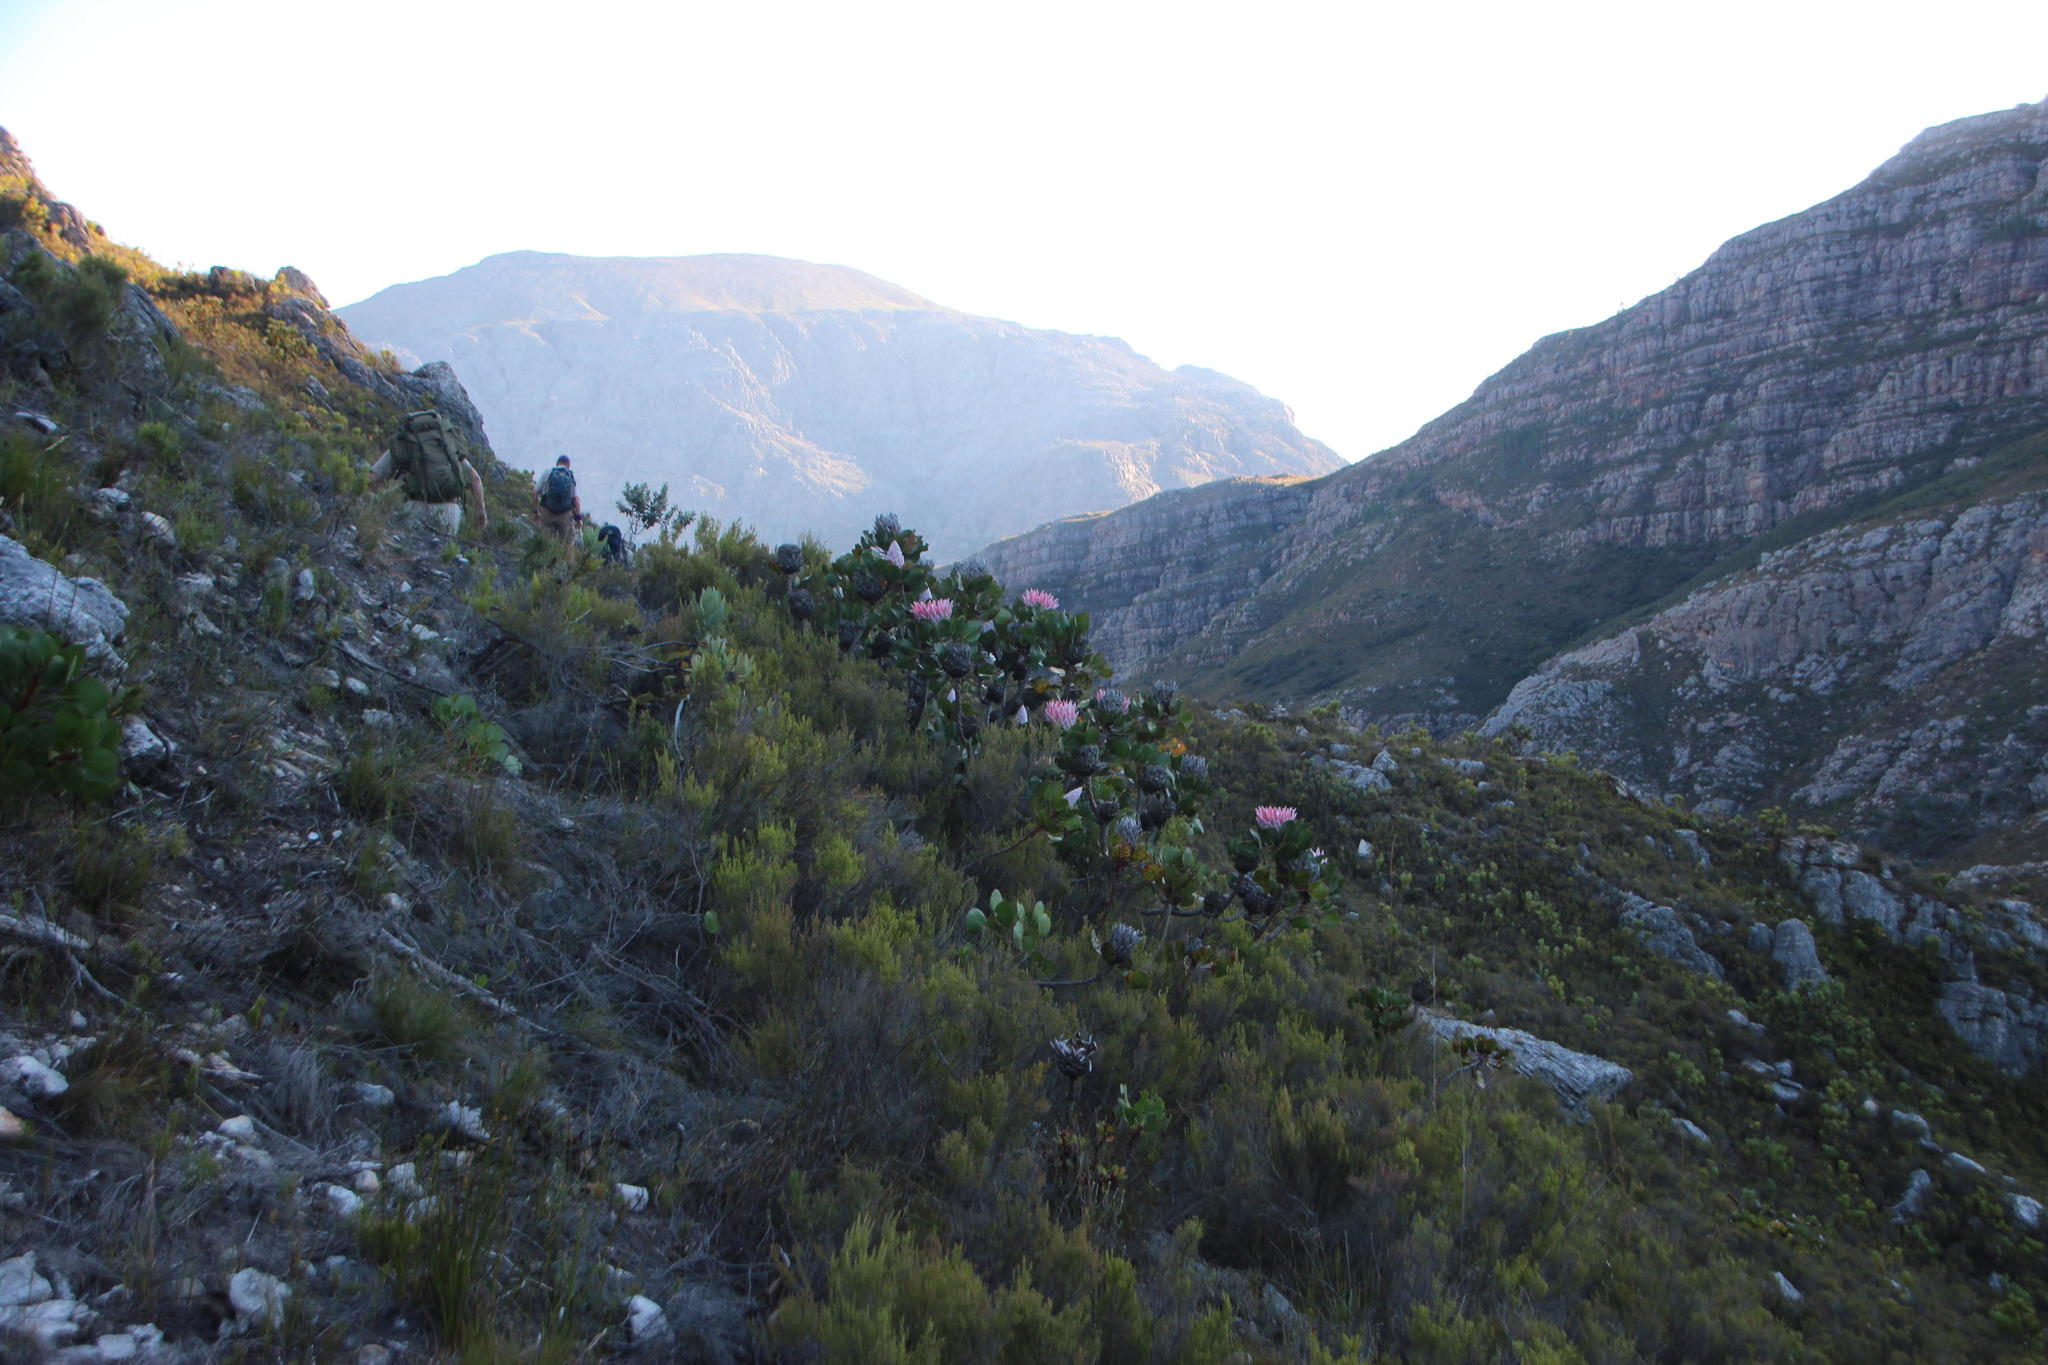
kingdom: Plantae
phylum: Tracheophyta
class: Magnoliopsida
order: Proteales
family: Proteaceae
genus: Protea
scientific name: Protea cynaroides
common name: King protea
